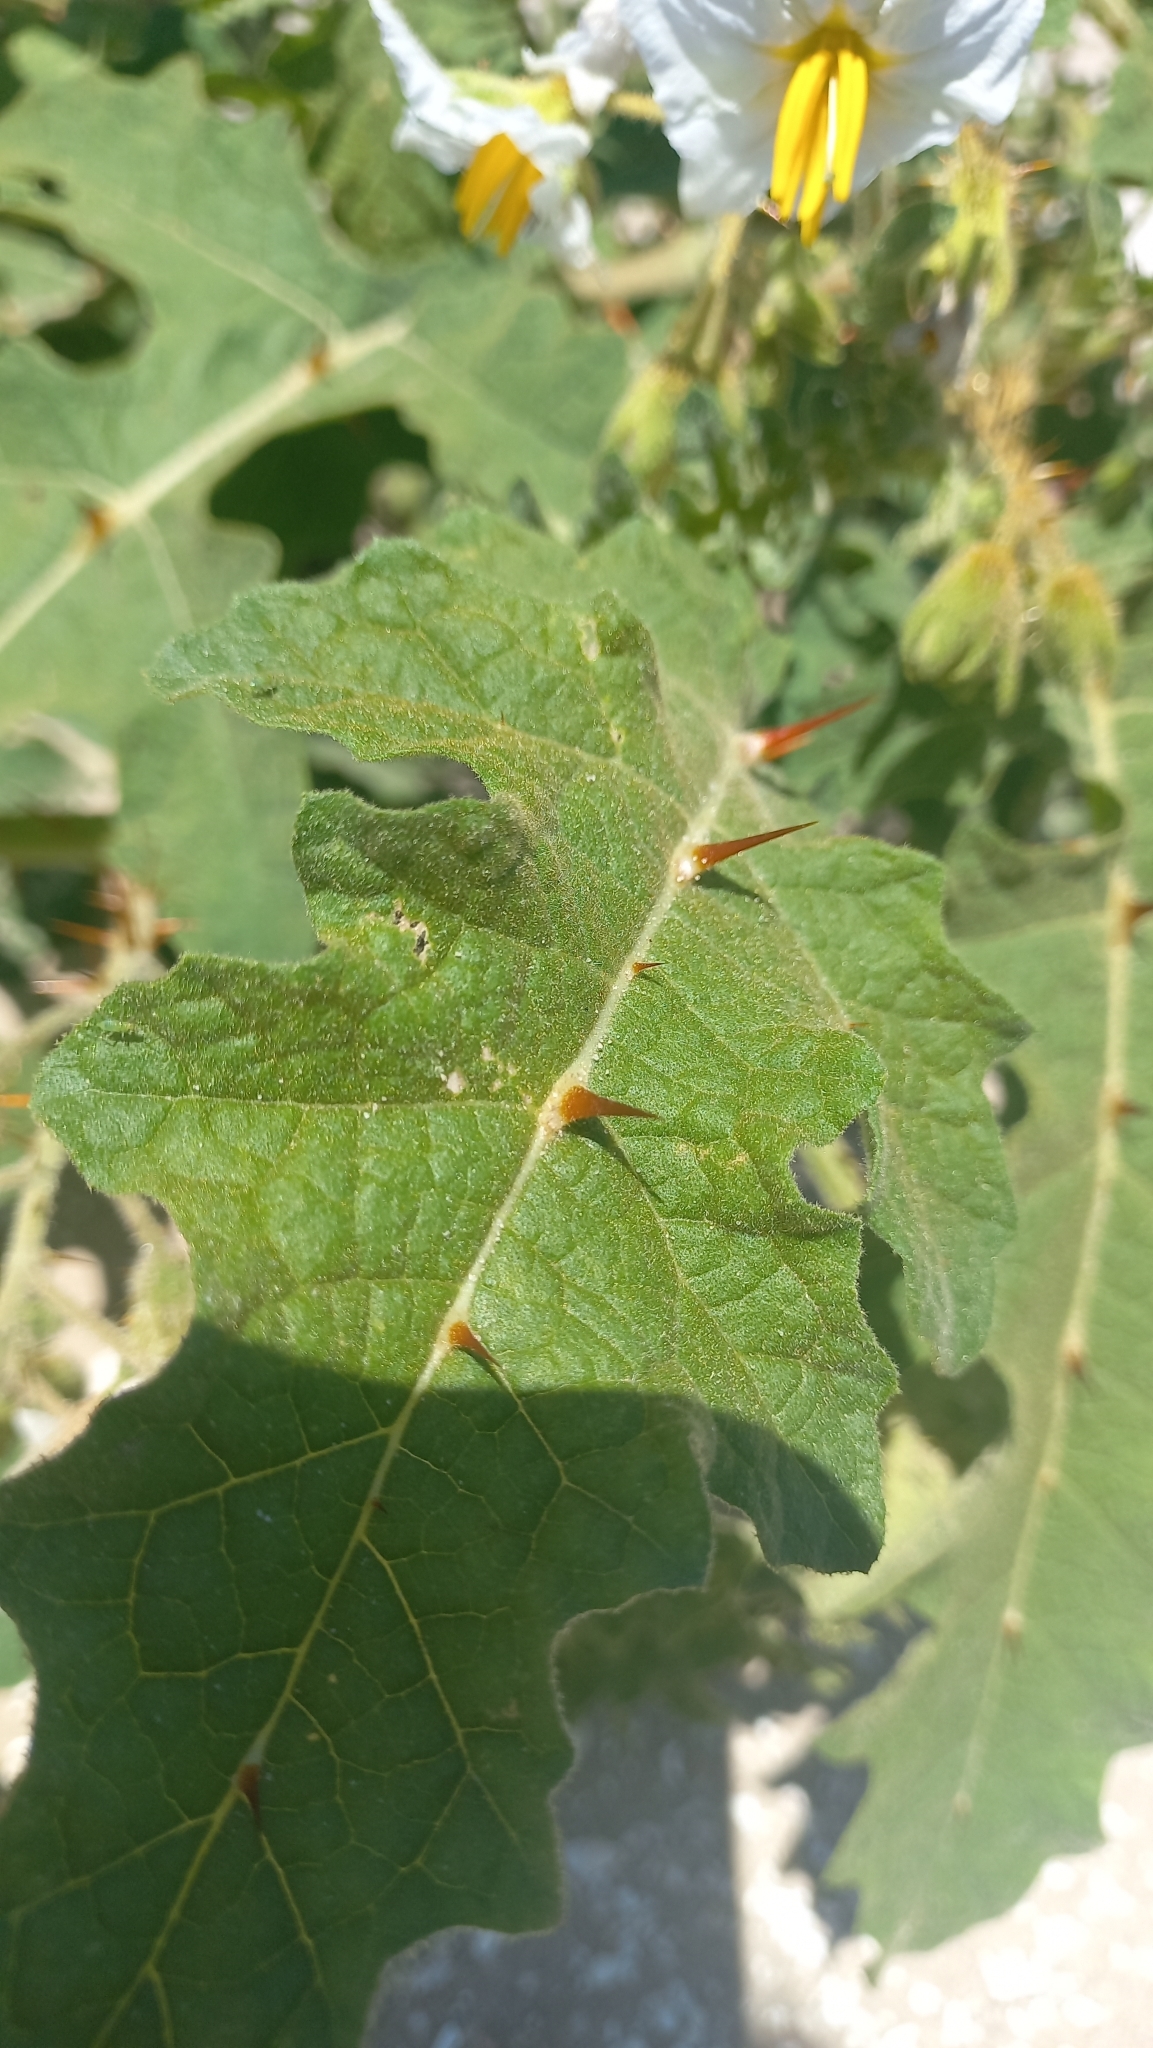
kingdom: Plantae
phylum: Tracheophyta
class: Magnoliopsida
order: Solanales
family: Solanaceae
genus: Solanum
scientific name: Solanum sisymbriifolium
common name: Red buffalo-bur
